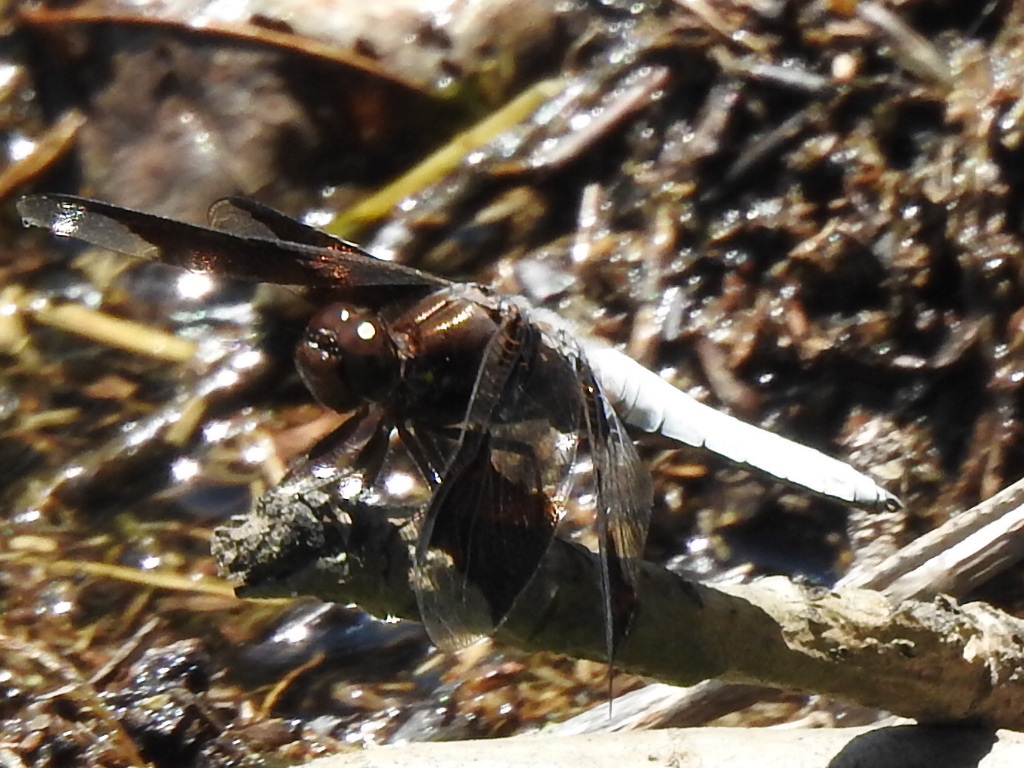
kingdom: Animalia
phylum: Arthropoda
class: Insecta
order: Odonata
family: Libellulidae
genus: Plathemis
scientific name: Plathemis lydia
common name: Common whitetail
